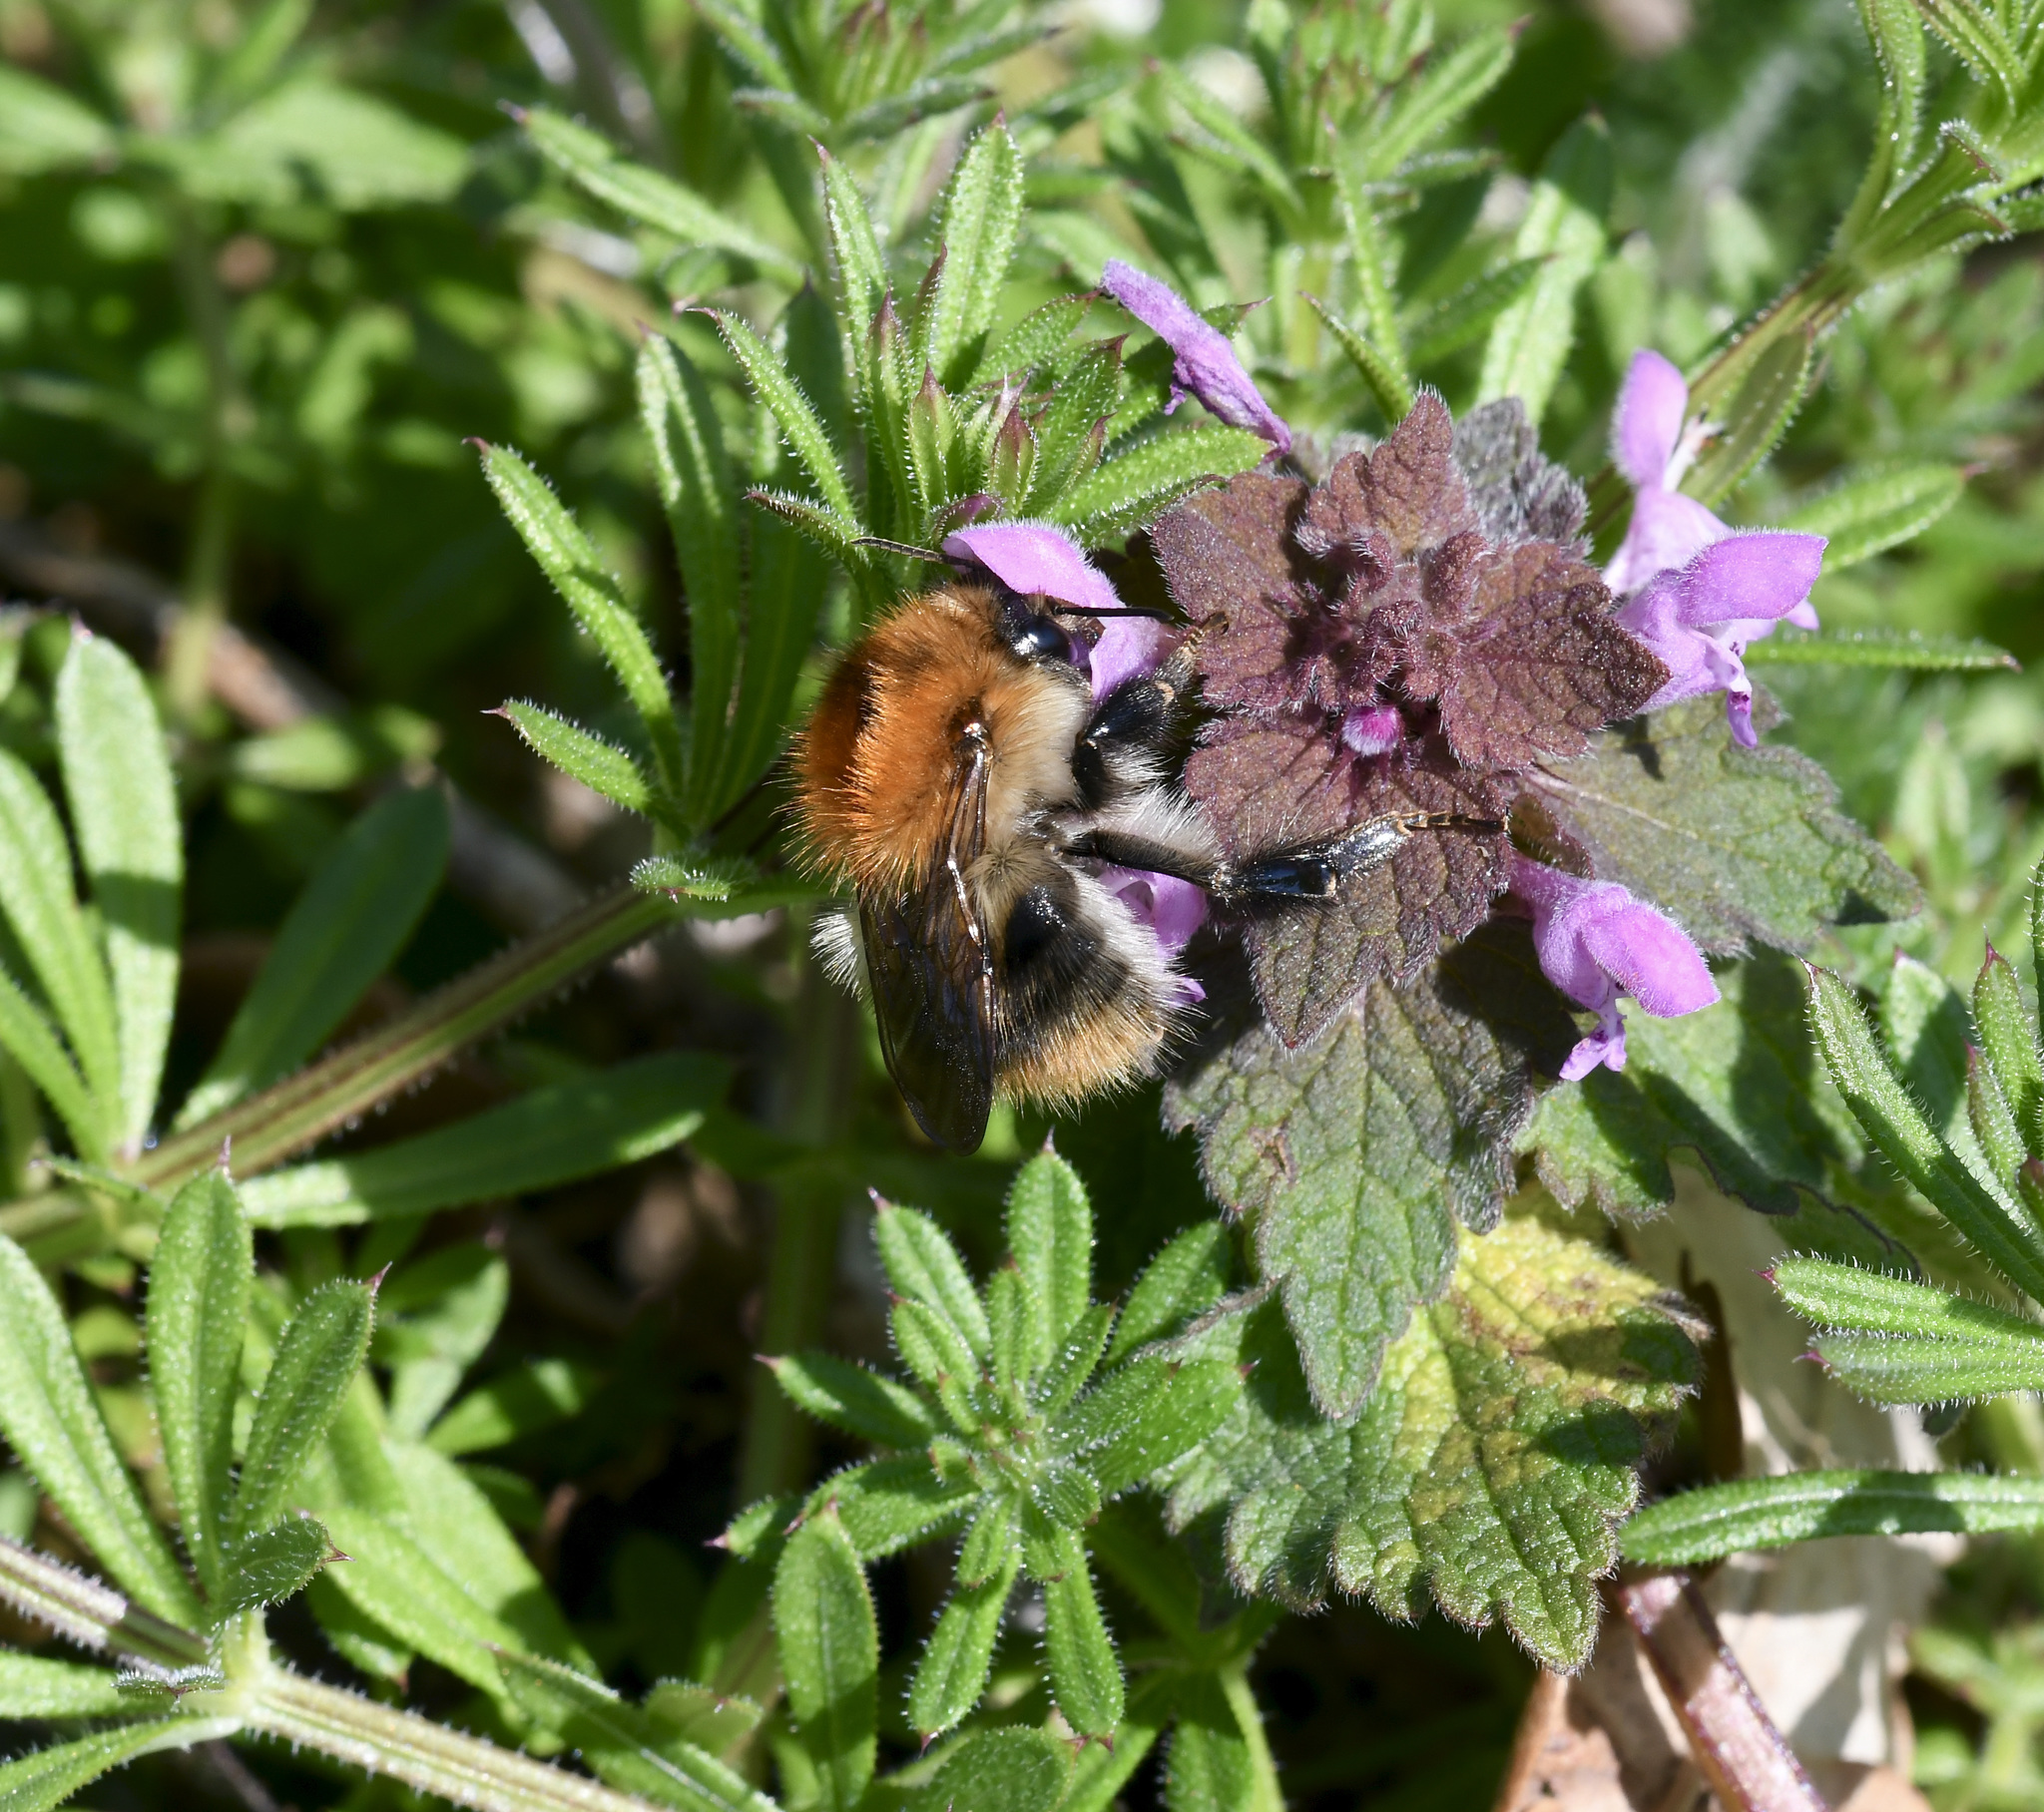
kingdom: Animalia
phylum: Arthropoda
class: Insecta
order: Hymenoptera
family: Apidae
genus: Bombus
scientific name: Bombus pascuorum
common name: Common carder bee
